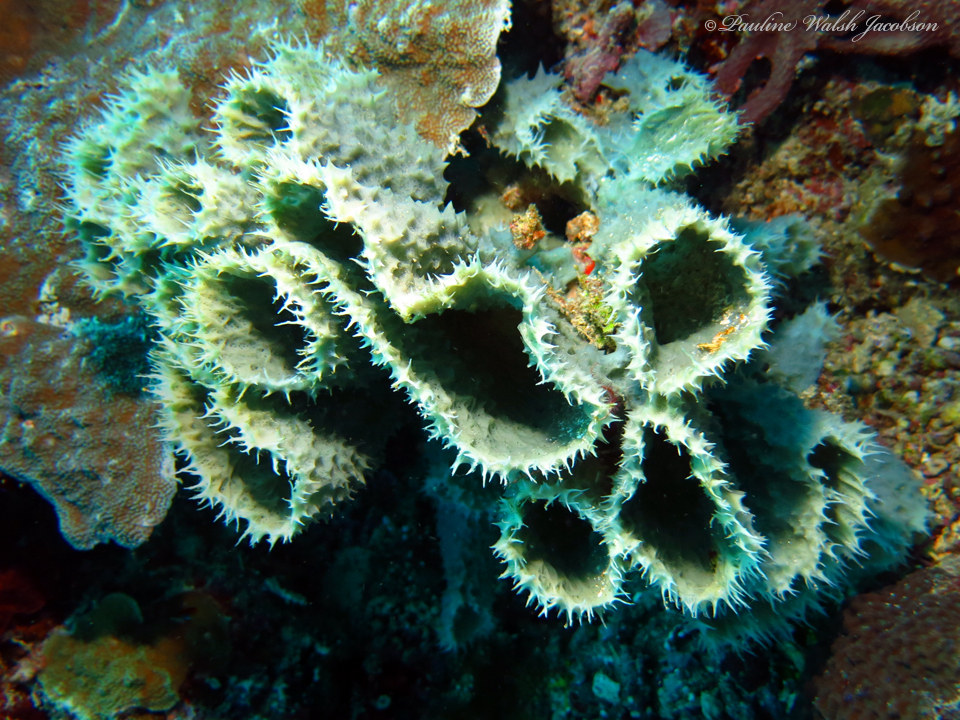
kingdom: Animalia
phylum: Porifera
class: Demospongiae
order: Haplosclerida
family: Callyspongiidae
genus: Callyspongia
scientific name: Callyspongia aerizusa
